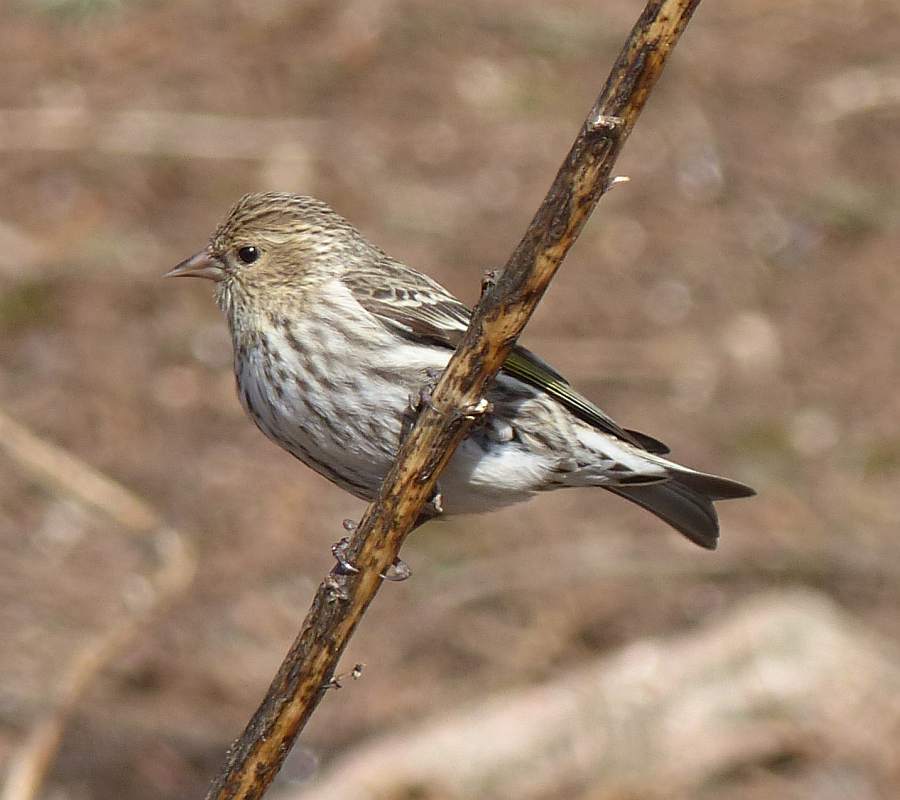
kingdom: Animalia
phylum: Chordata
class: Aves
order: Passeriformes
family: Fringillidae
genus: Spinus
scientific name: Spinus pinus
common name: Pine siskin
